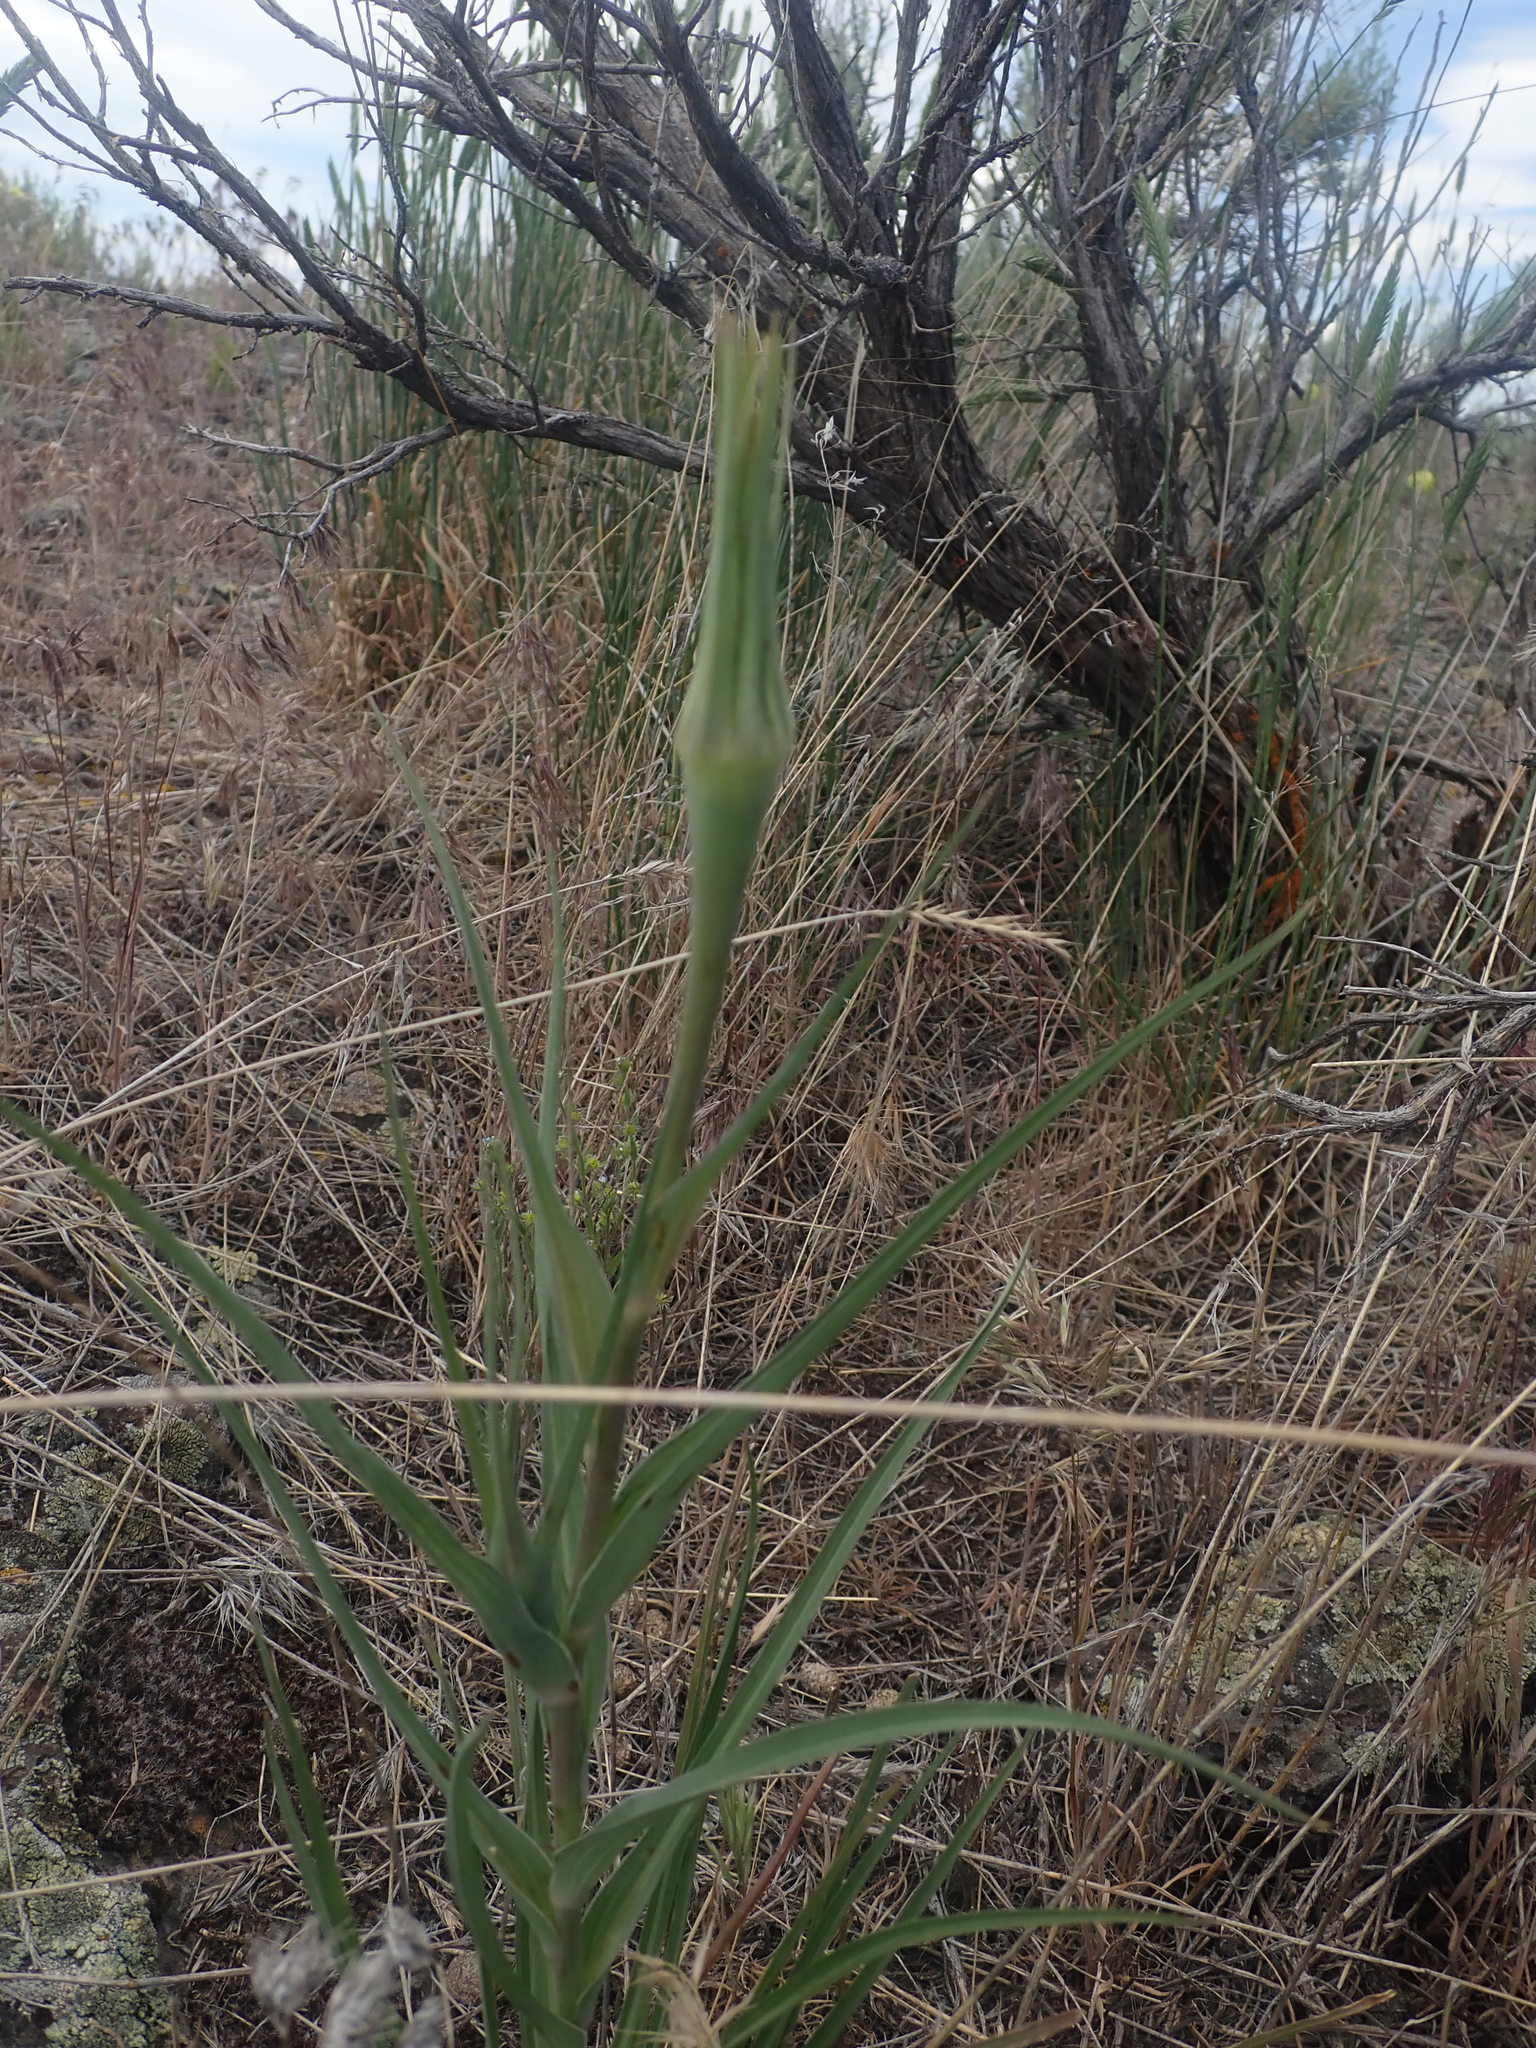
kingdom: Plantae
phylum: Tracheophyta
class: Magnoliopsida
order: Asterales
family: Asteraceae
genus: Tragopogon
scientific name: Tragopogon dubius
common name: Yellow salsify
